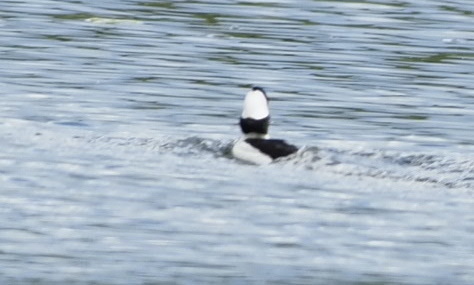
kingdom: Animalia
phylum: Chordata
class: Aves
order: Anseriformes
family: Anatidae
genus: Bucephala
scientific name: Bucephala albeola
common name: Bufflehead
